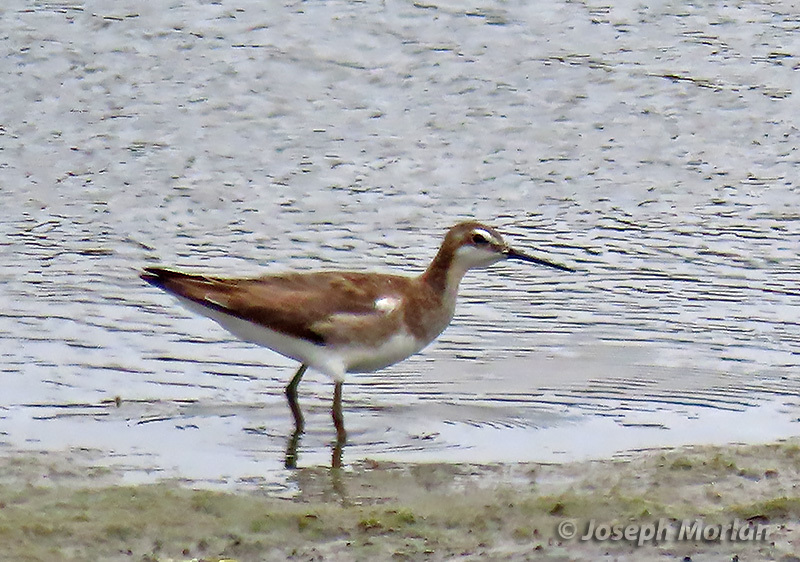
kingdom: Animalia
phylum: Chordata
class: Aves
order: Charadriiformes
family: Scolopacidae
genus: Phalaropus
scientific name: Phalaropus tricolor
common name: Wilson's phalarope
